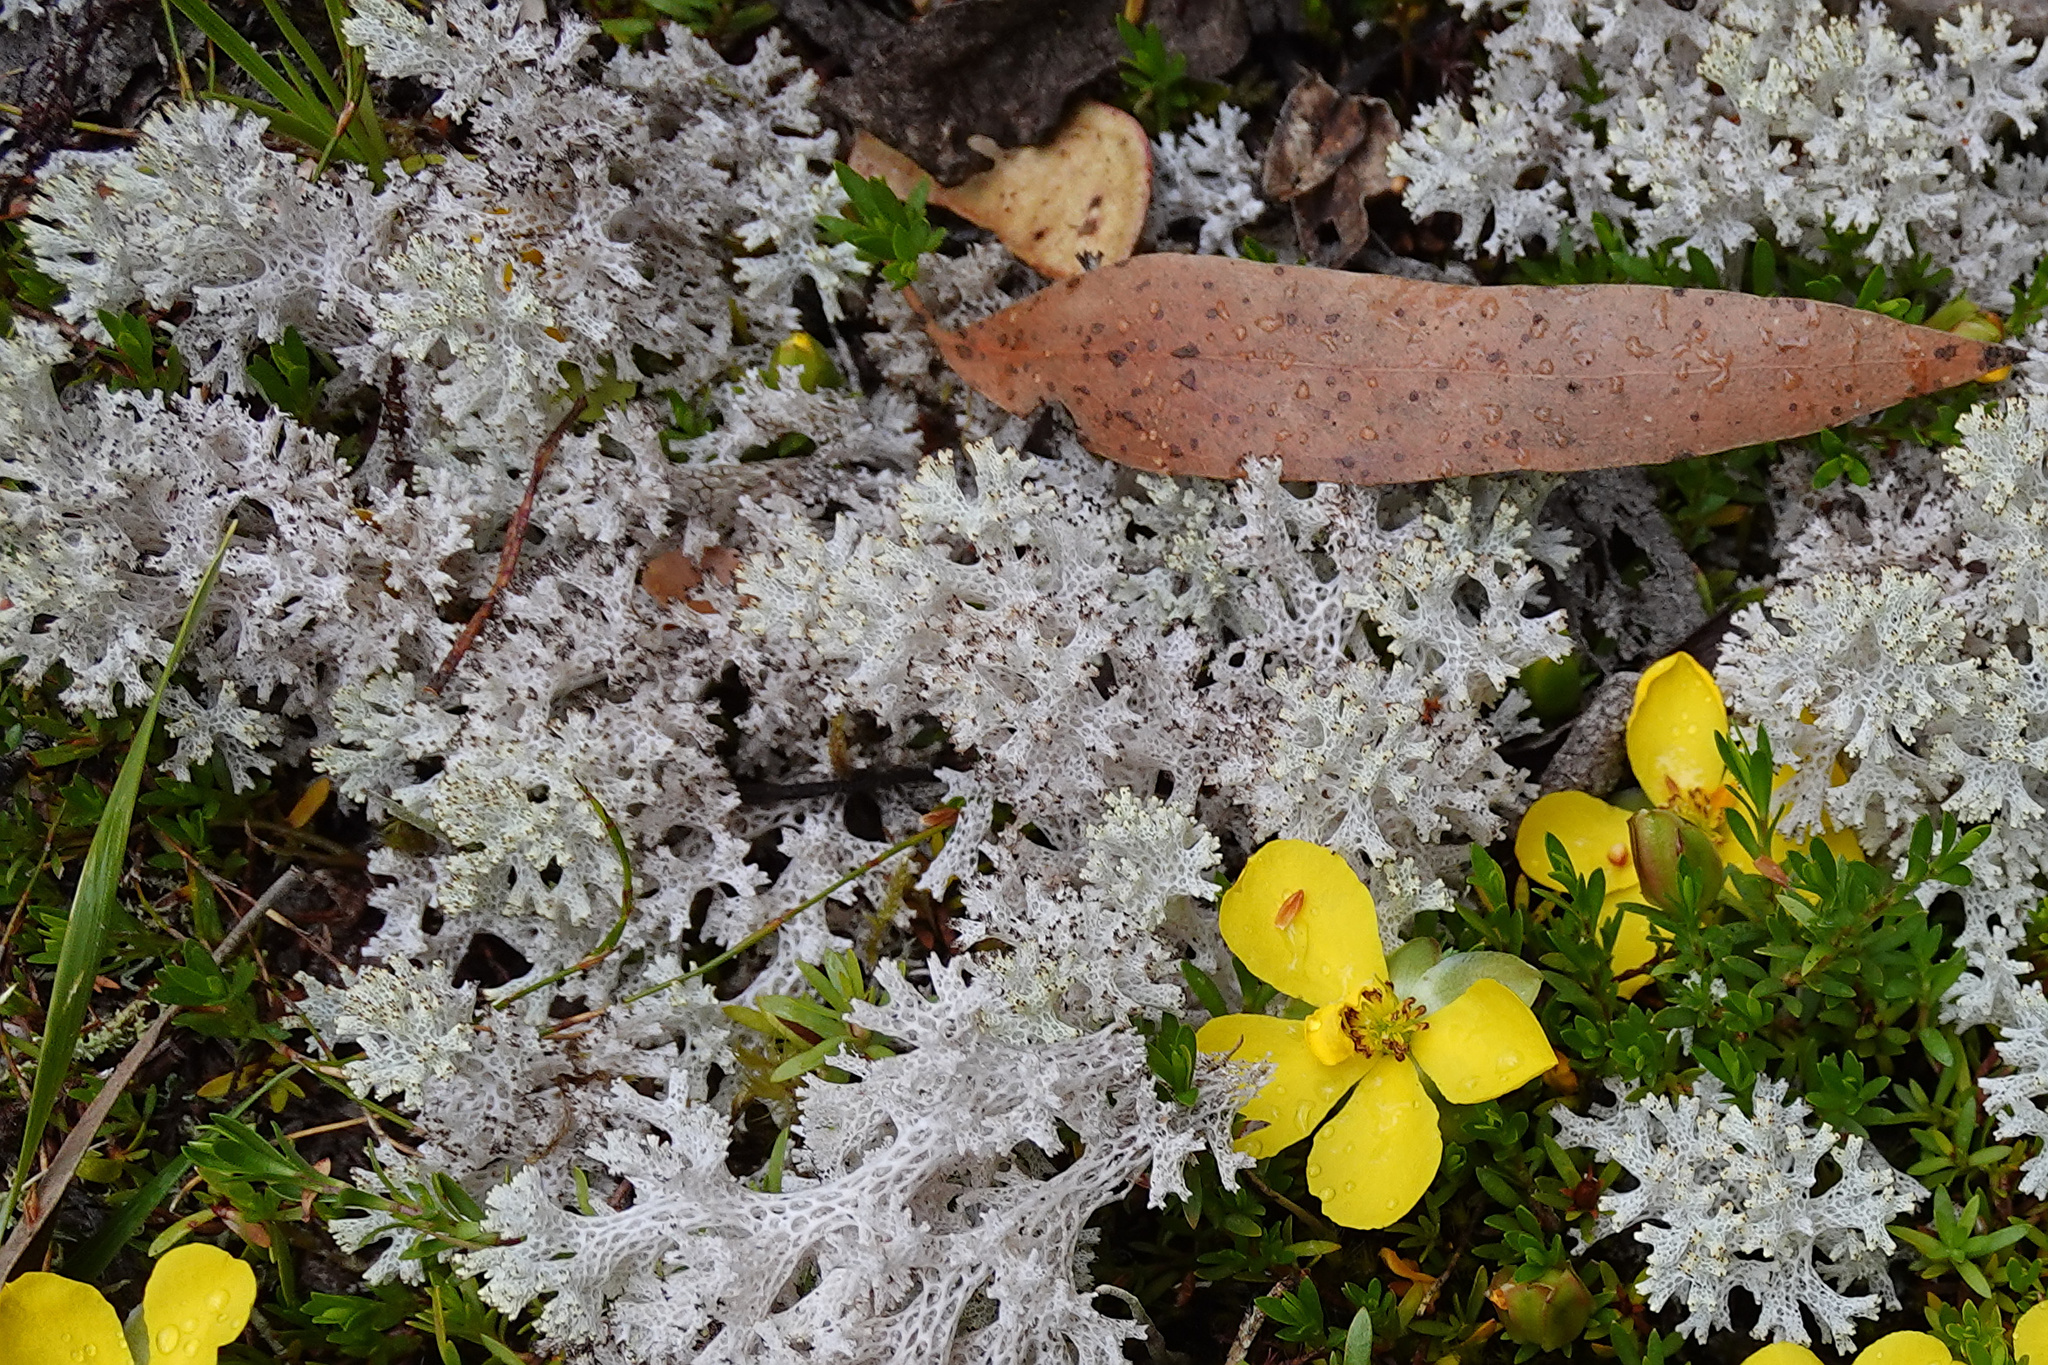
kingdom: Fungi
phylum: Ascomycota
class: Lecanoromycetes
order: Lecanorales
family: Cladoniaceae
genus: Pulchrocladia
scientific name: Pulchrocladia retipora
